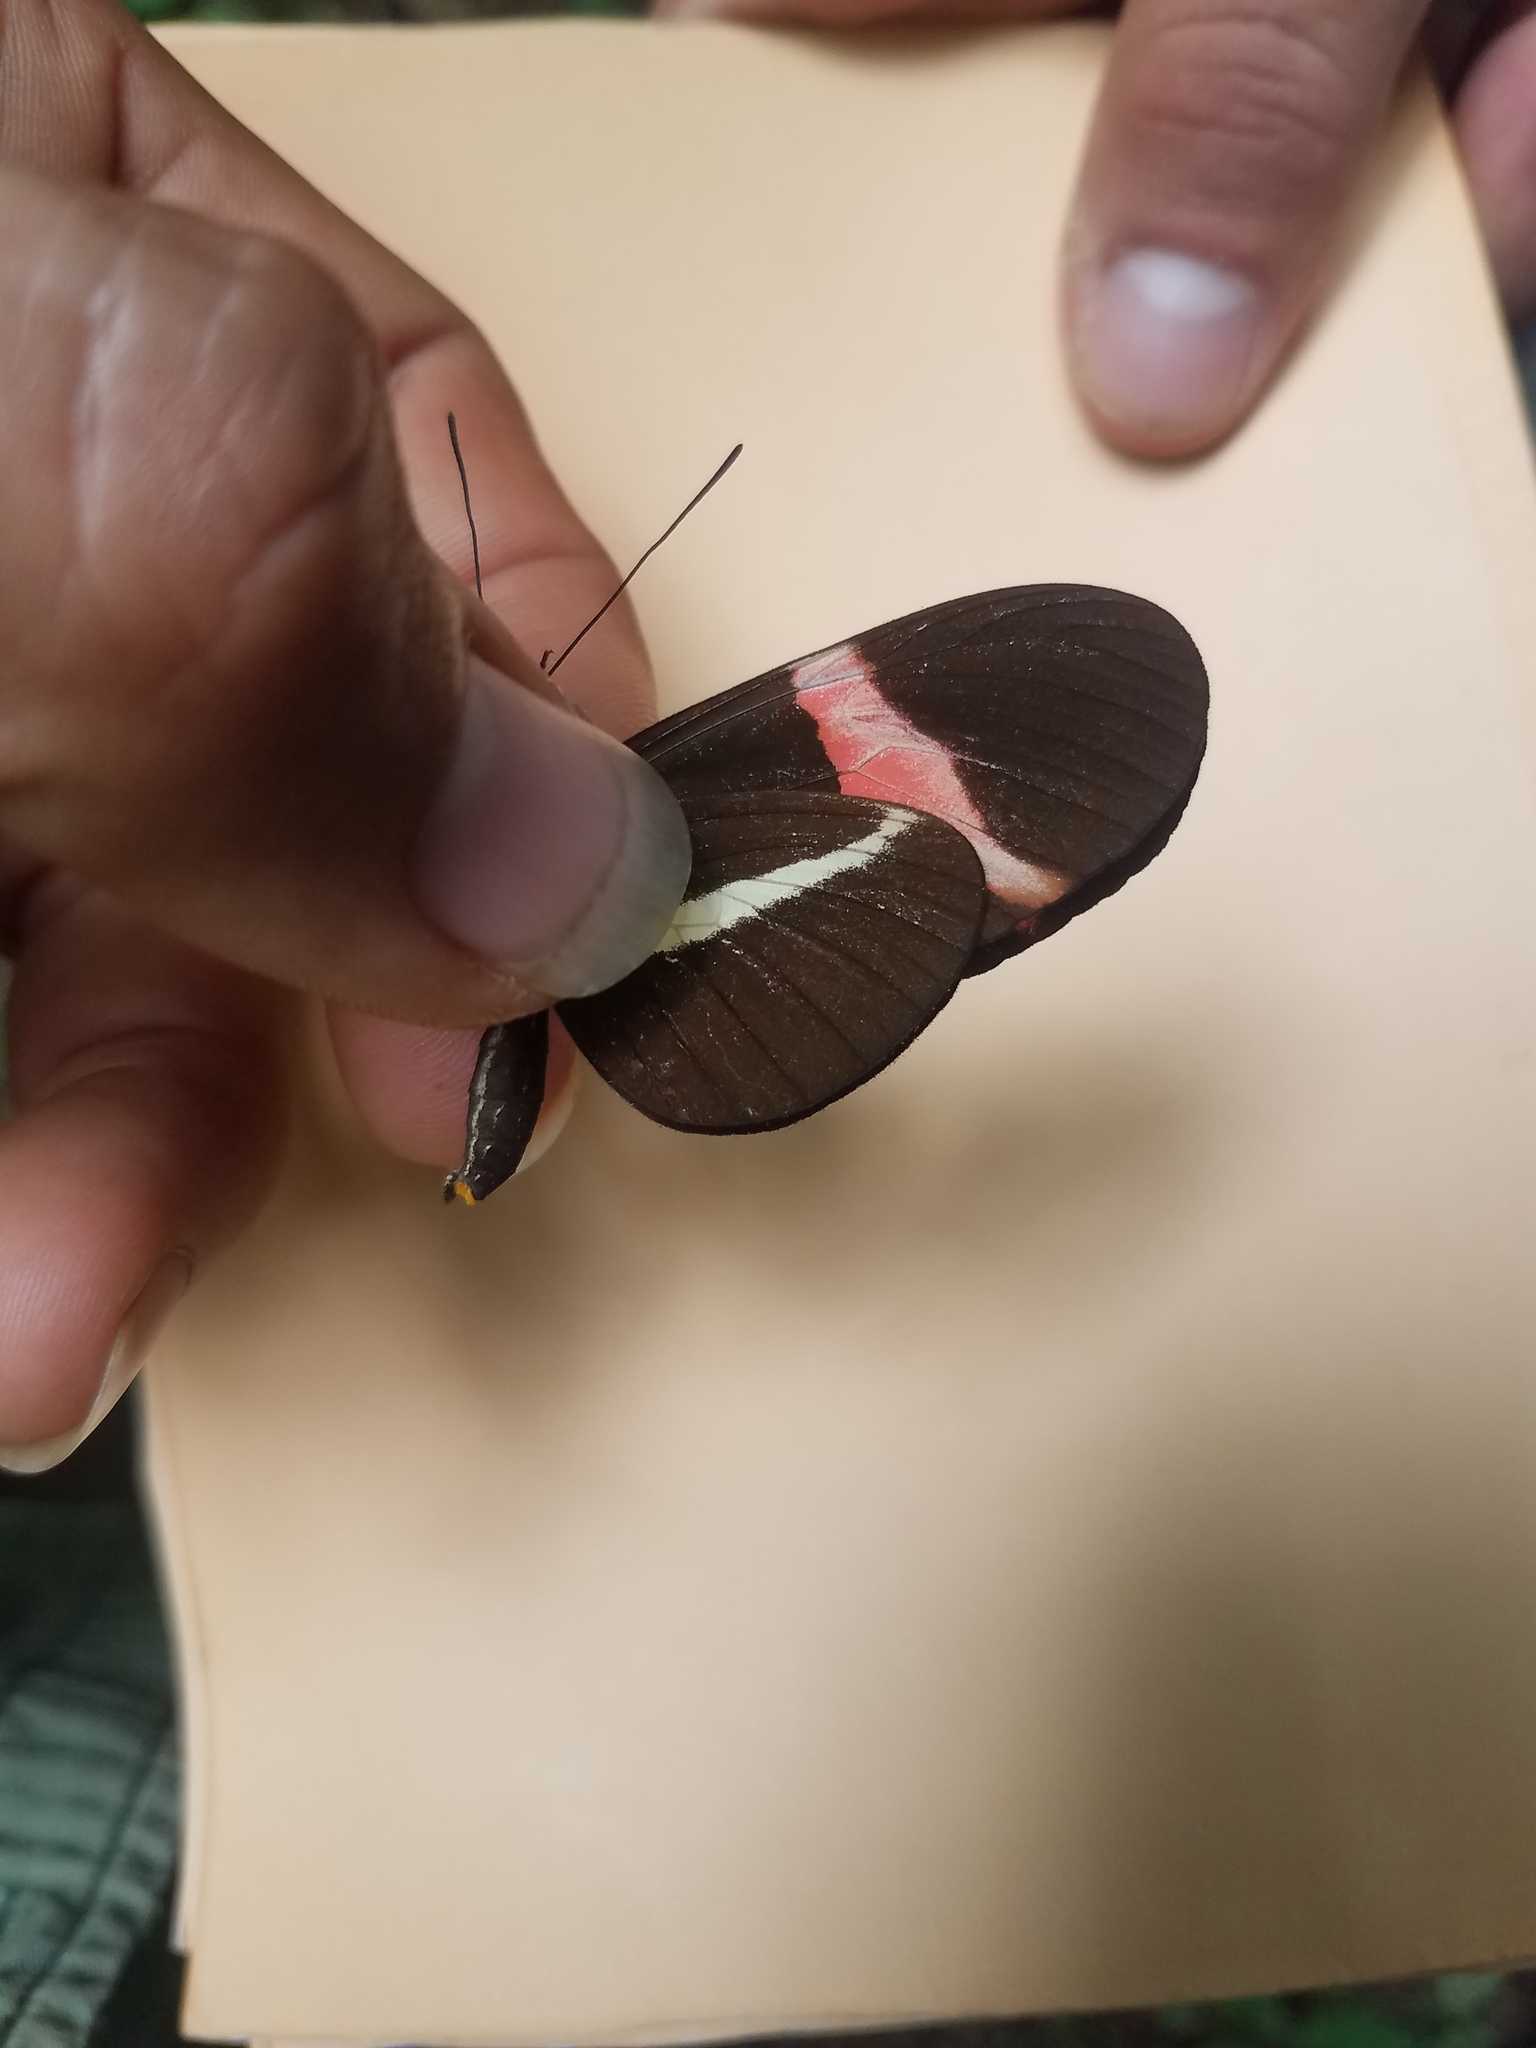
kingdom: Animalia
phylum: Arthropoda
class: Insecta
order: Lepidoptera
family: Nymphalidae
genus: Tirumala
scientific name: Tirumala petiverana
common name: Blue monarch
